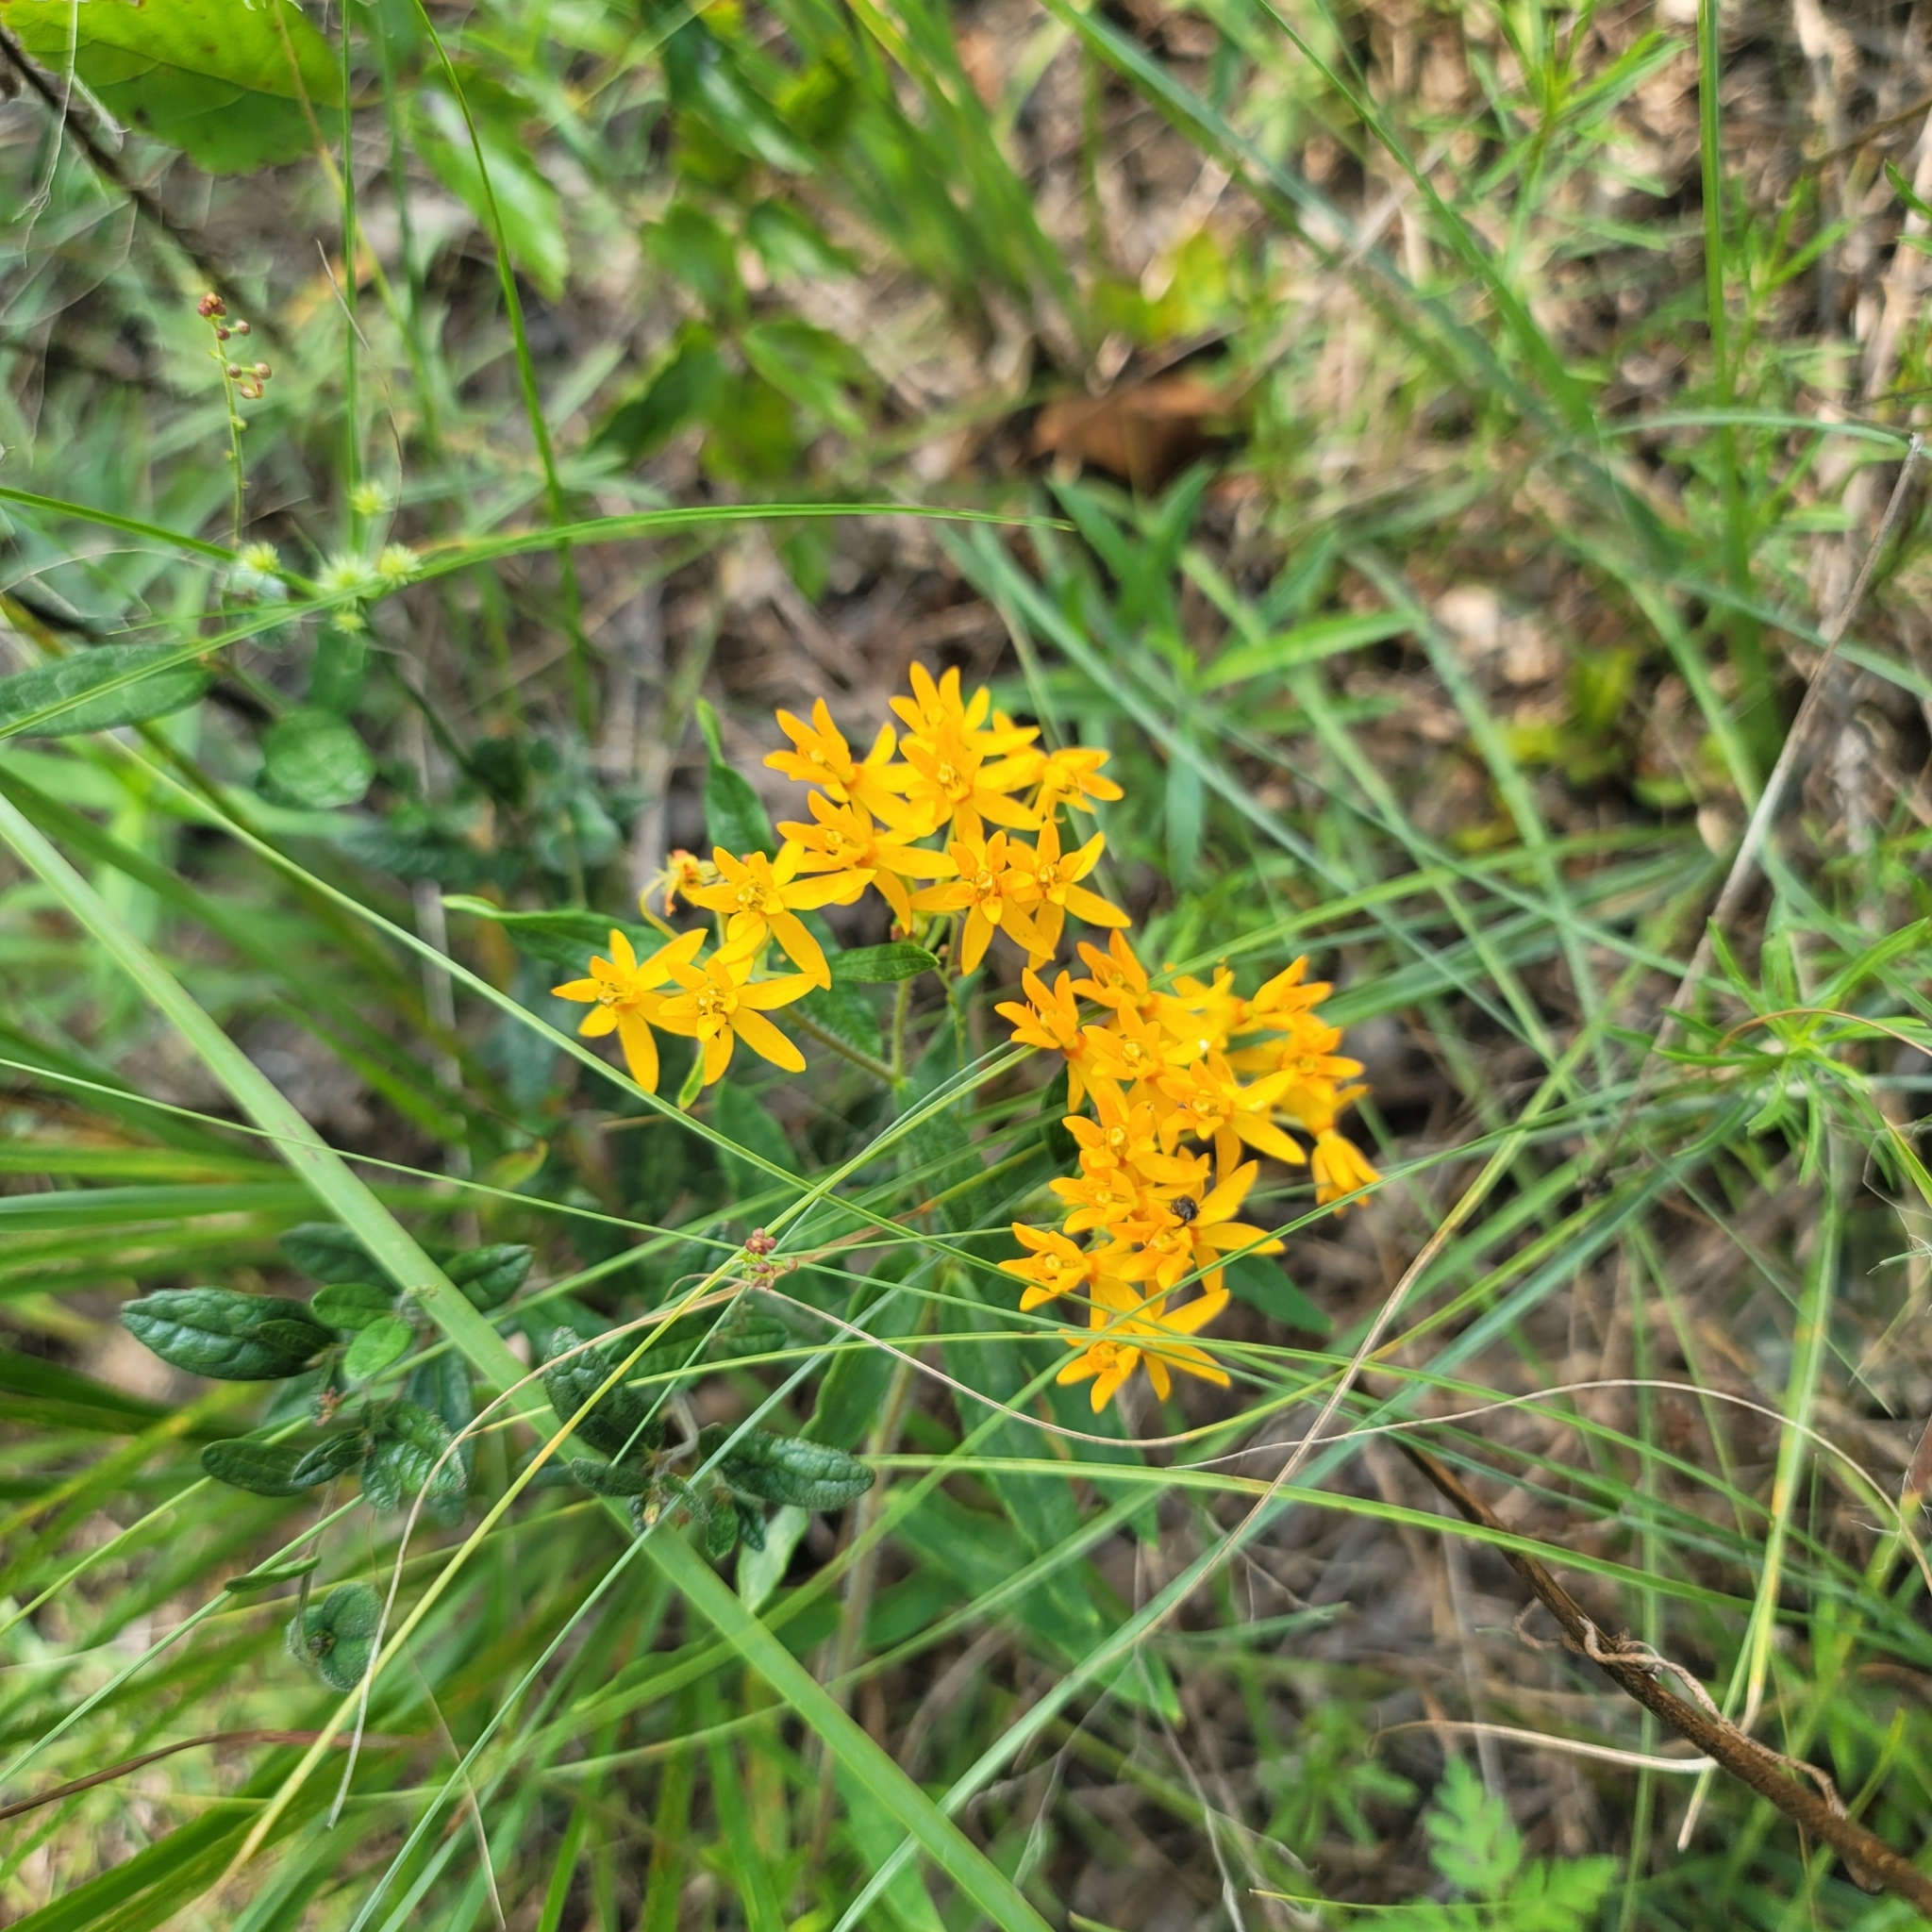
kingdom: Plantae
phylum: Tracheophyta
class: Magnoliopsida
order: Gentianales
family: Apocynaceae
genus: Asclepias
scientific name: Asclepias tuberosa
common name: Butterfly milkweed
